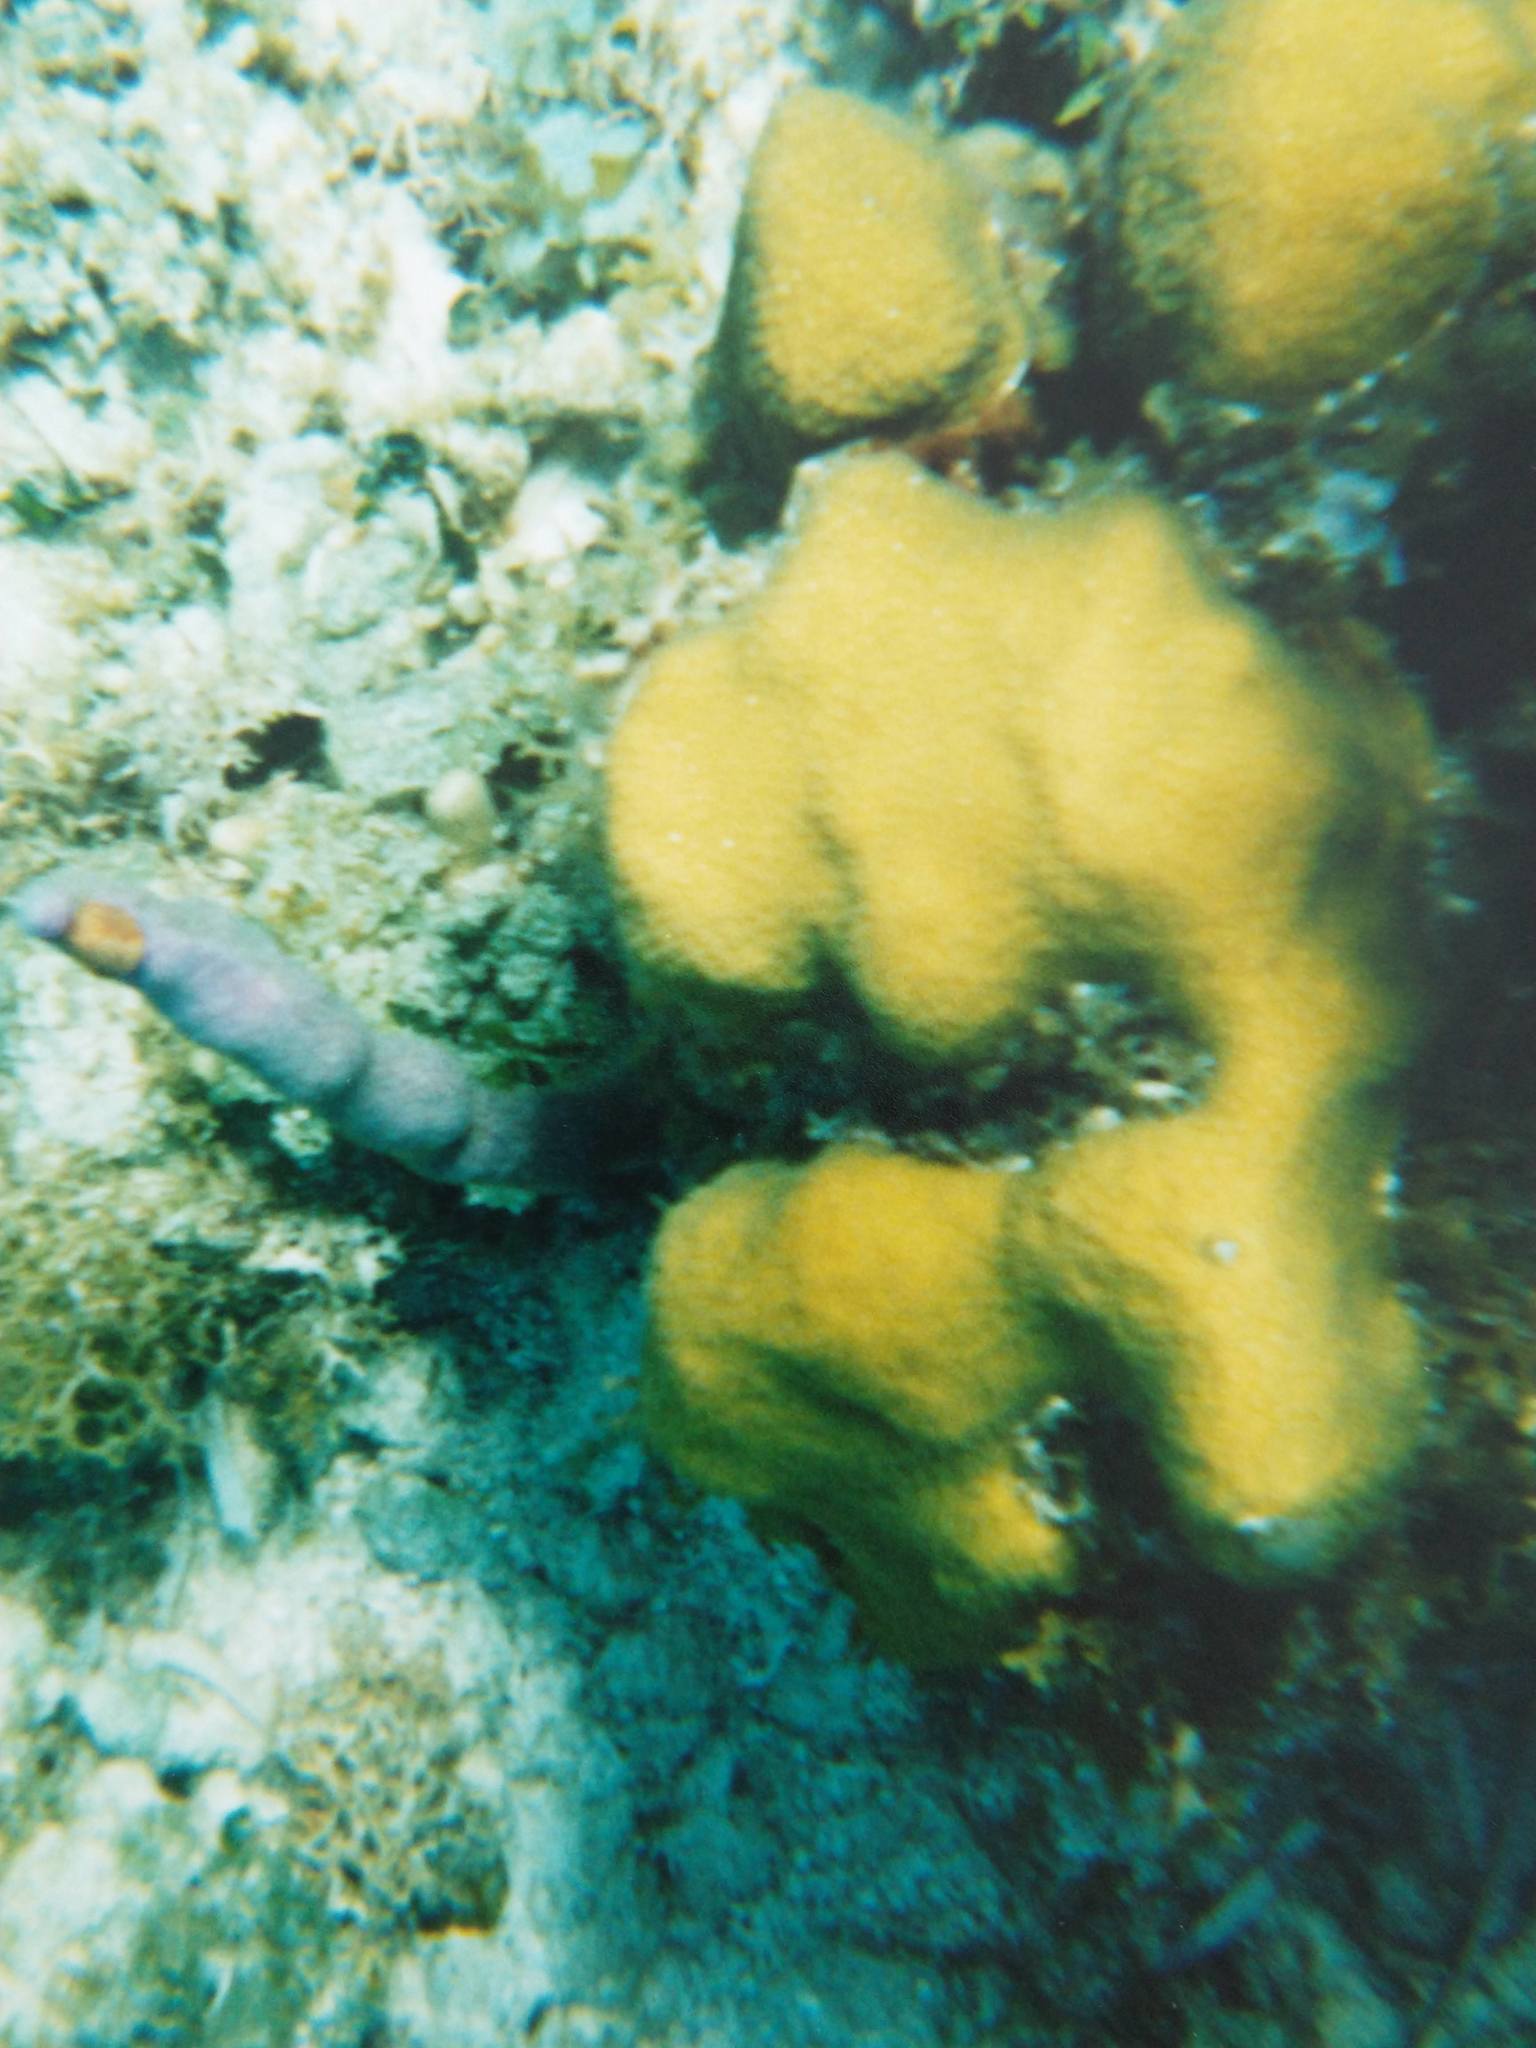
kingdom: Animalia
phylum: Mollusca
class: Gastropoda
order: Littorinimorpha
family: Ovulidae
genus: Cyphoma
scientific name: Cyphoma
